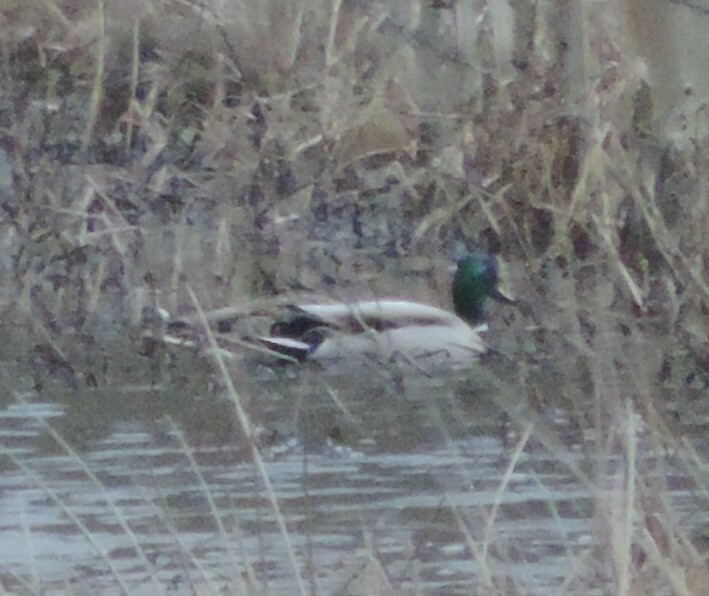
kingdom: Animalia
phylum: Chordata
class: Aves
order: Anseriformes
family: Anatidae
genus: Anas
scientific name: Anas platyrhynchos
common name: Mallard
